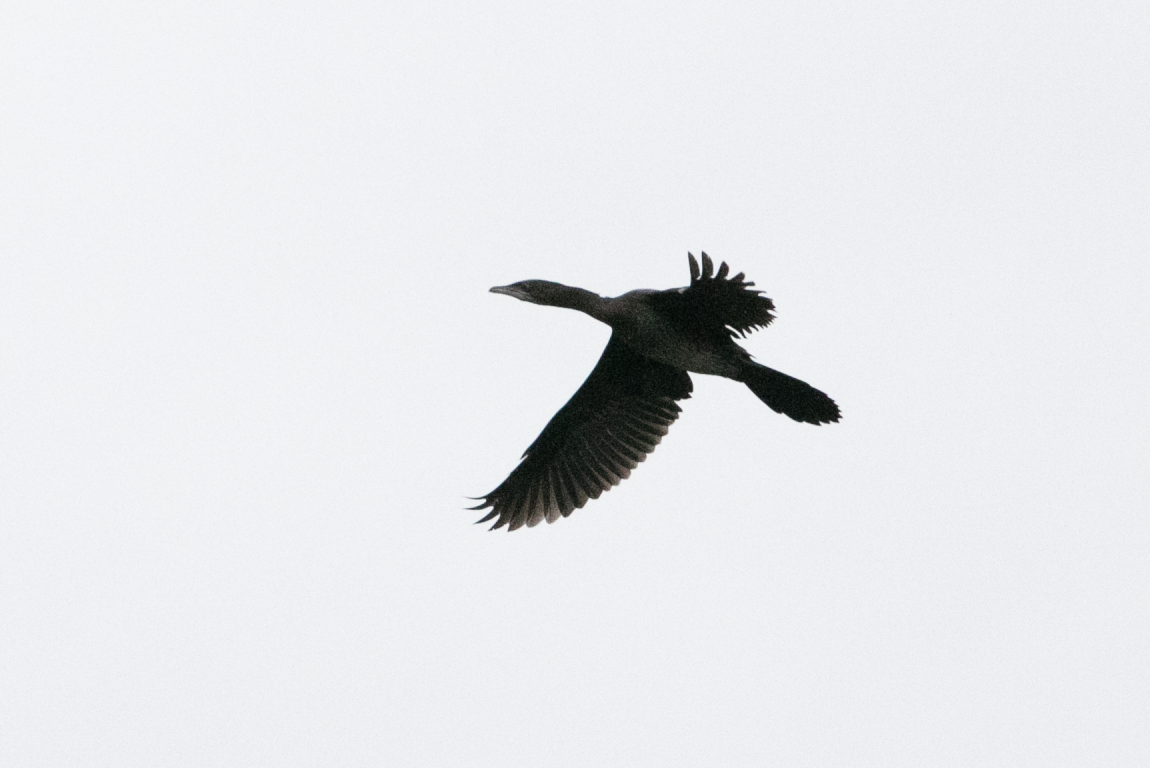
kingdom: Animalia
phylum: Chordata
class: Aves
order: Suliformes
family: Phalacrocoracidae
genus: Microcarbo
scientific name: Microcarbo pygmaeus
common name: Pygmy cormorant
